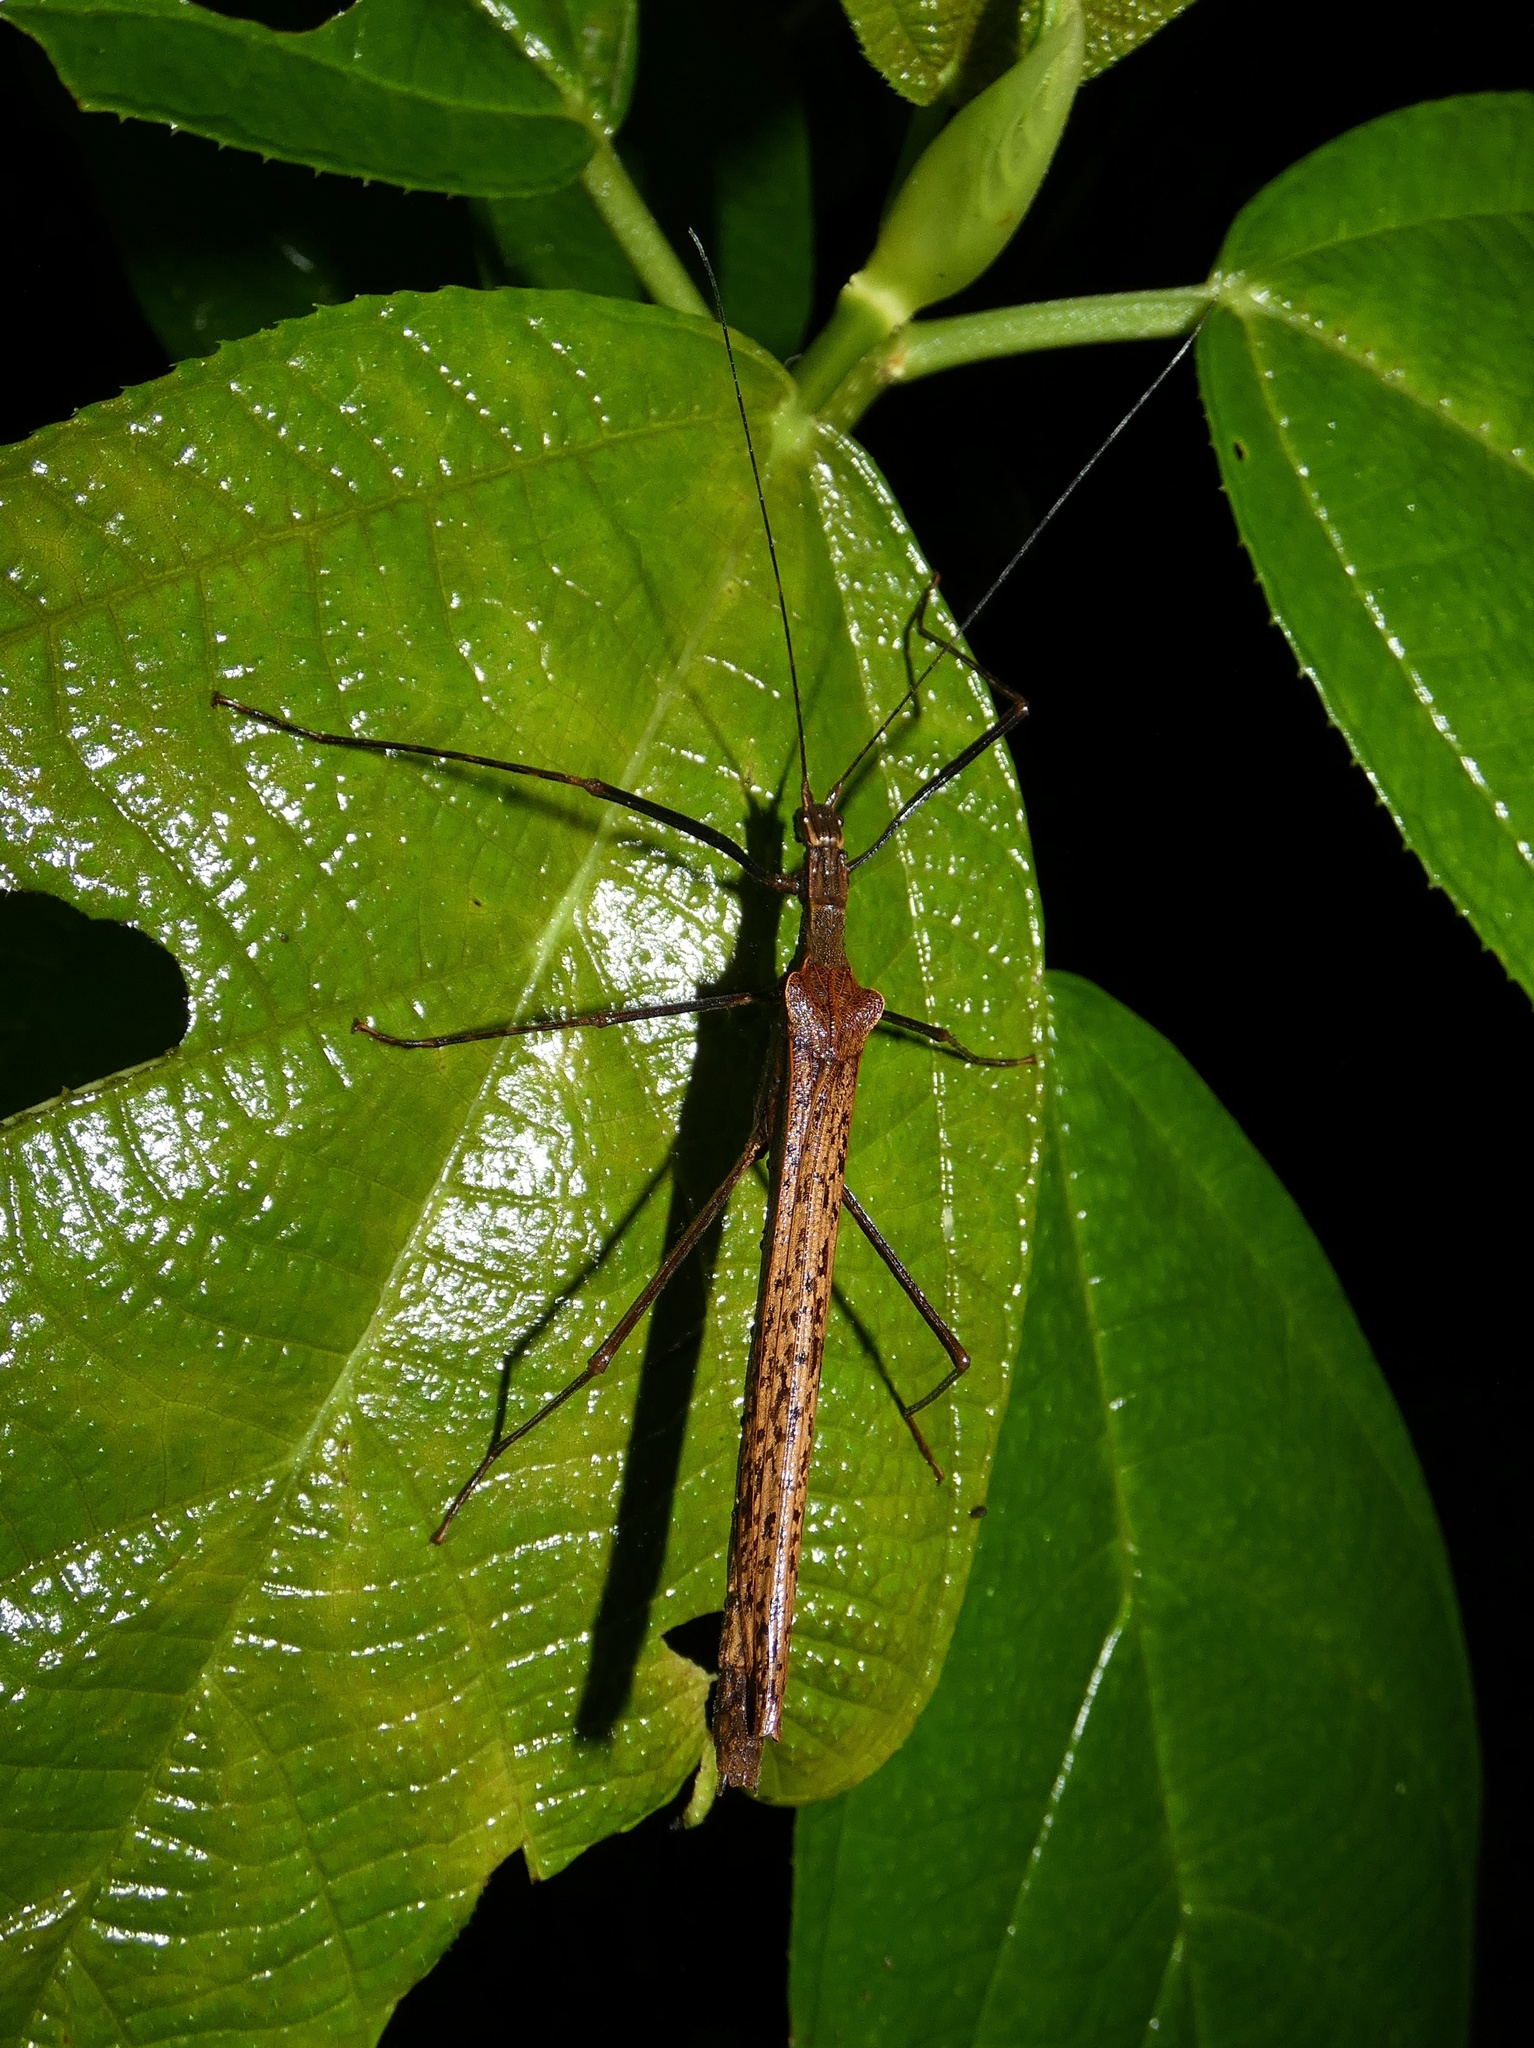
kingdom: Animalia
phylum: Arthropoda
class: Insecta
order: Phasmida
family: Pseudophasmatidae
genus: Pseudophasma
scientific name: Pseudophasma unicolor
